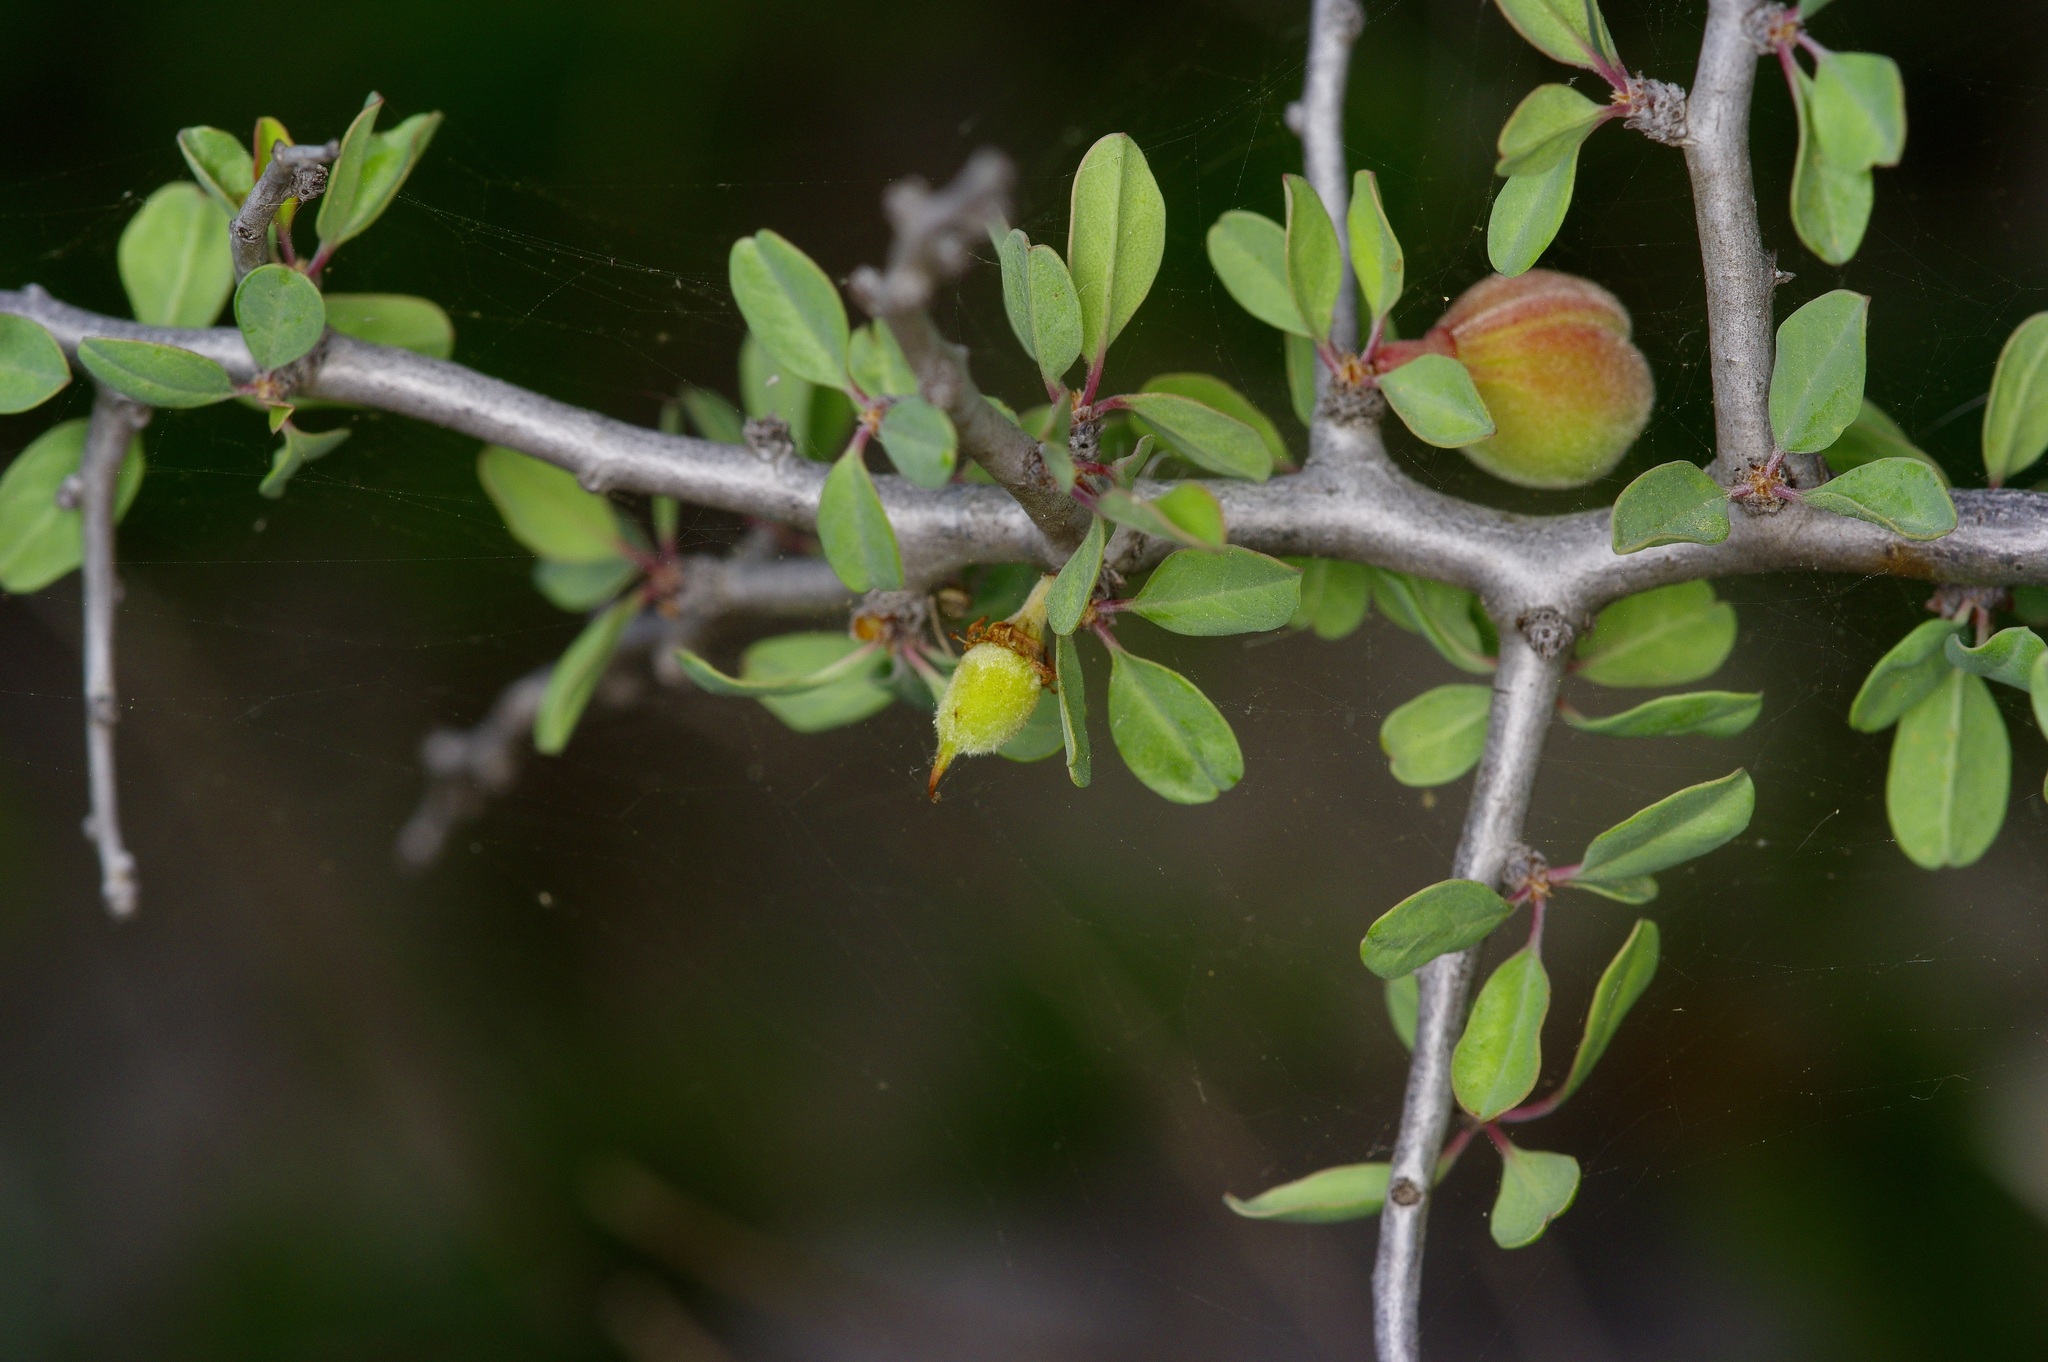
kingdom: Plantae
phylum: Tracheophyta
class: Magnoliopsida
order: Rosales
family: Rosaceae
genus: Prunus
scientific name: Prunus minutiflora
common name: Texas almond
